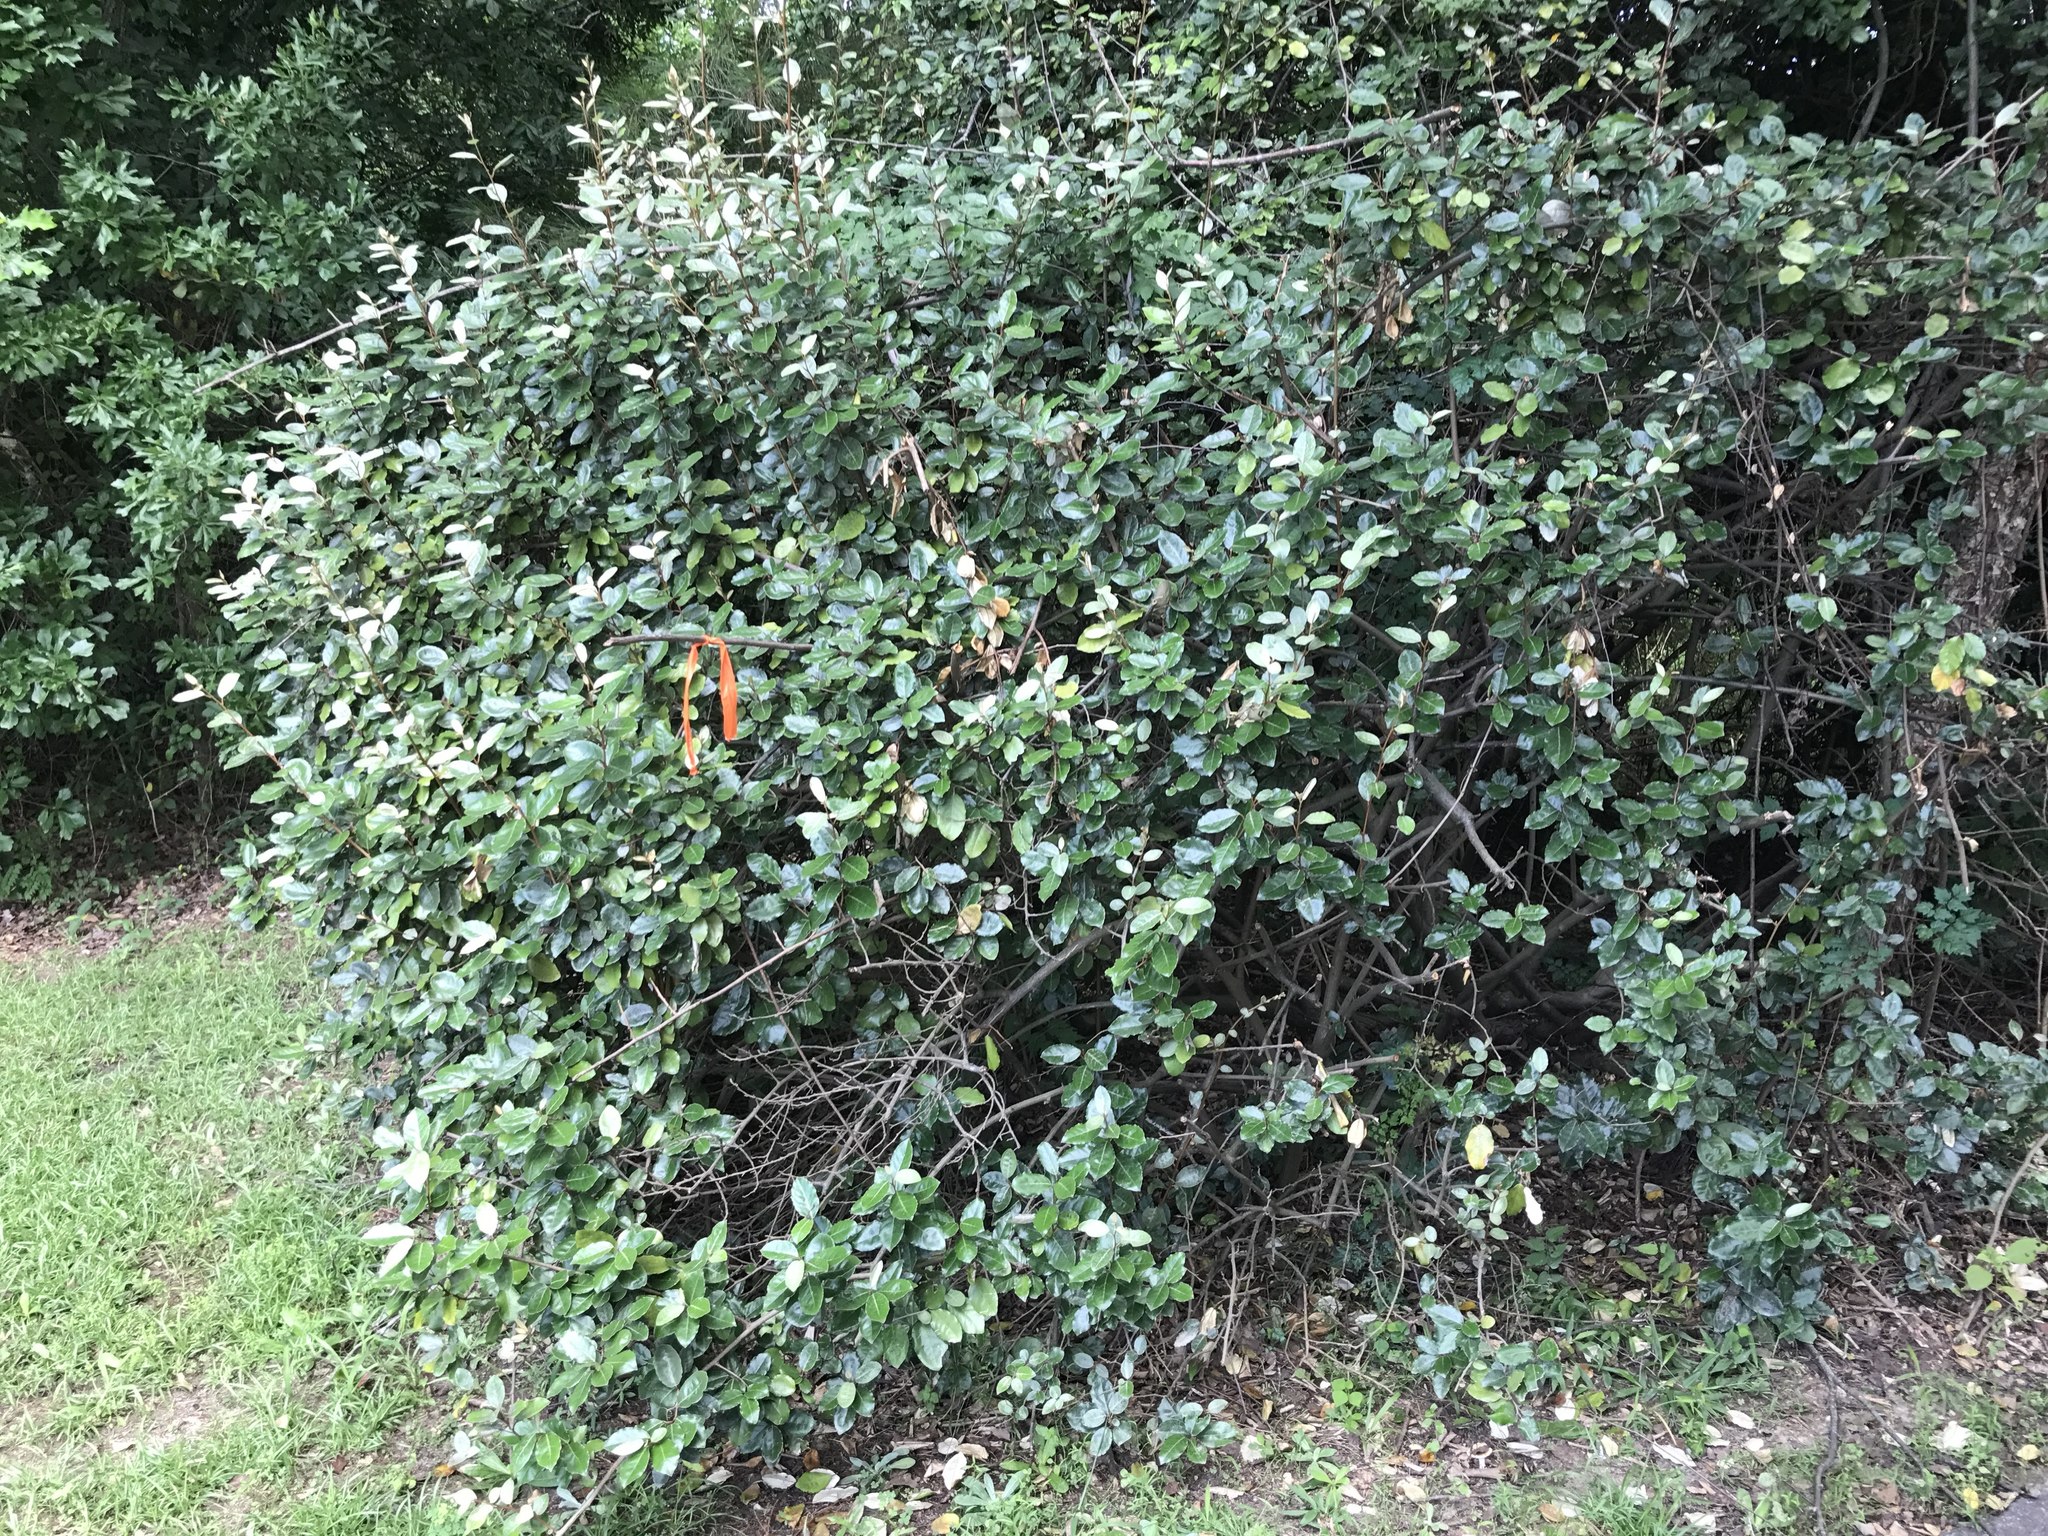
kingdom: Plantae
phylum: Tracheophyta
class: Magnoliopsida
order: Rosales
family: Elaeagnaceae
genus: Elaeagnus
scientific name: Elaeagnus pungens
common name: Spiny oleaster
